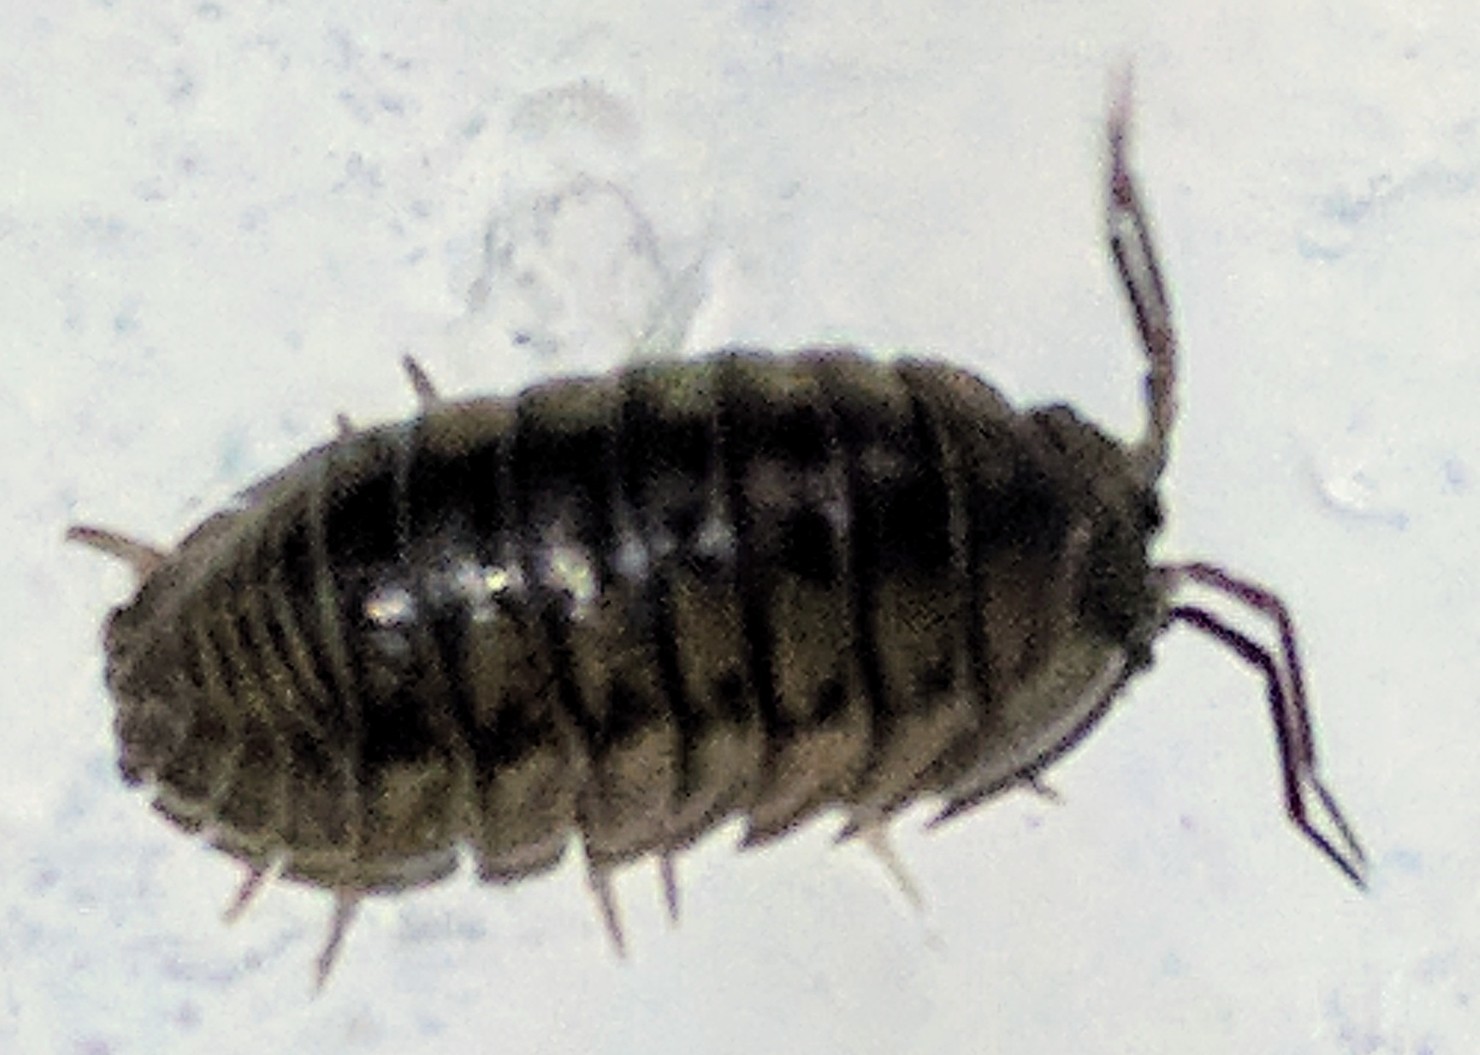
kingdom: Animalia
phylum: Arthropoda
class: Malacostraca
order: Isopoda
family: Armadillidiidae
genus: Armadillidium
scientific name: Armadillidium nasatum
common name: Isopod
